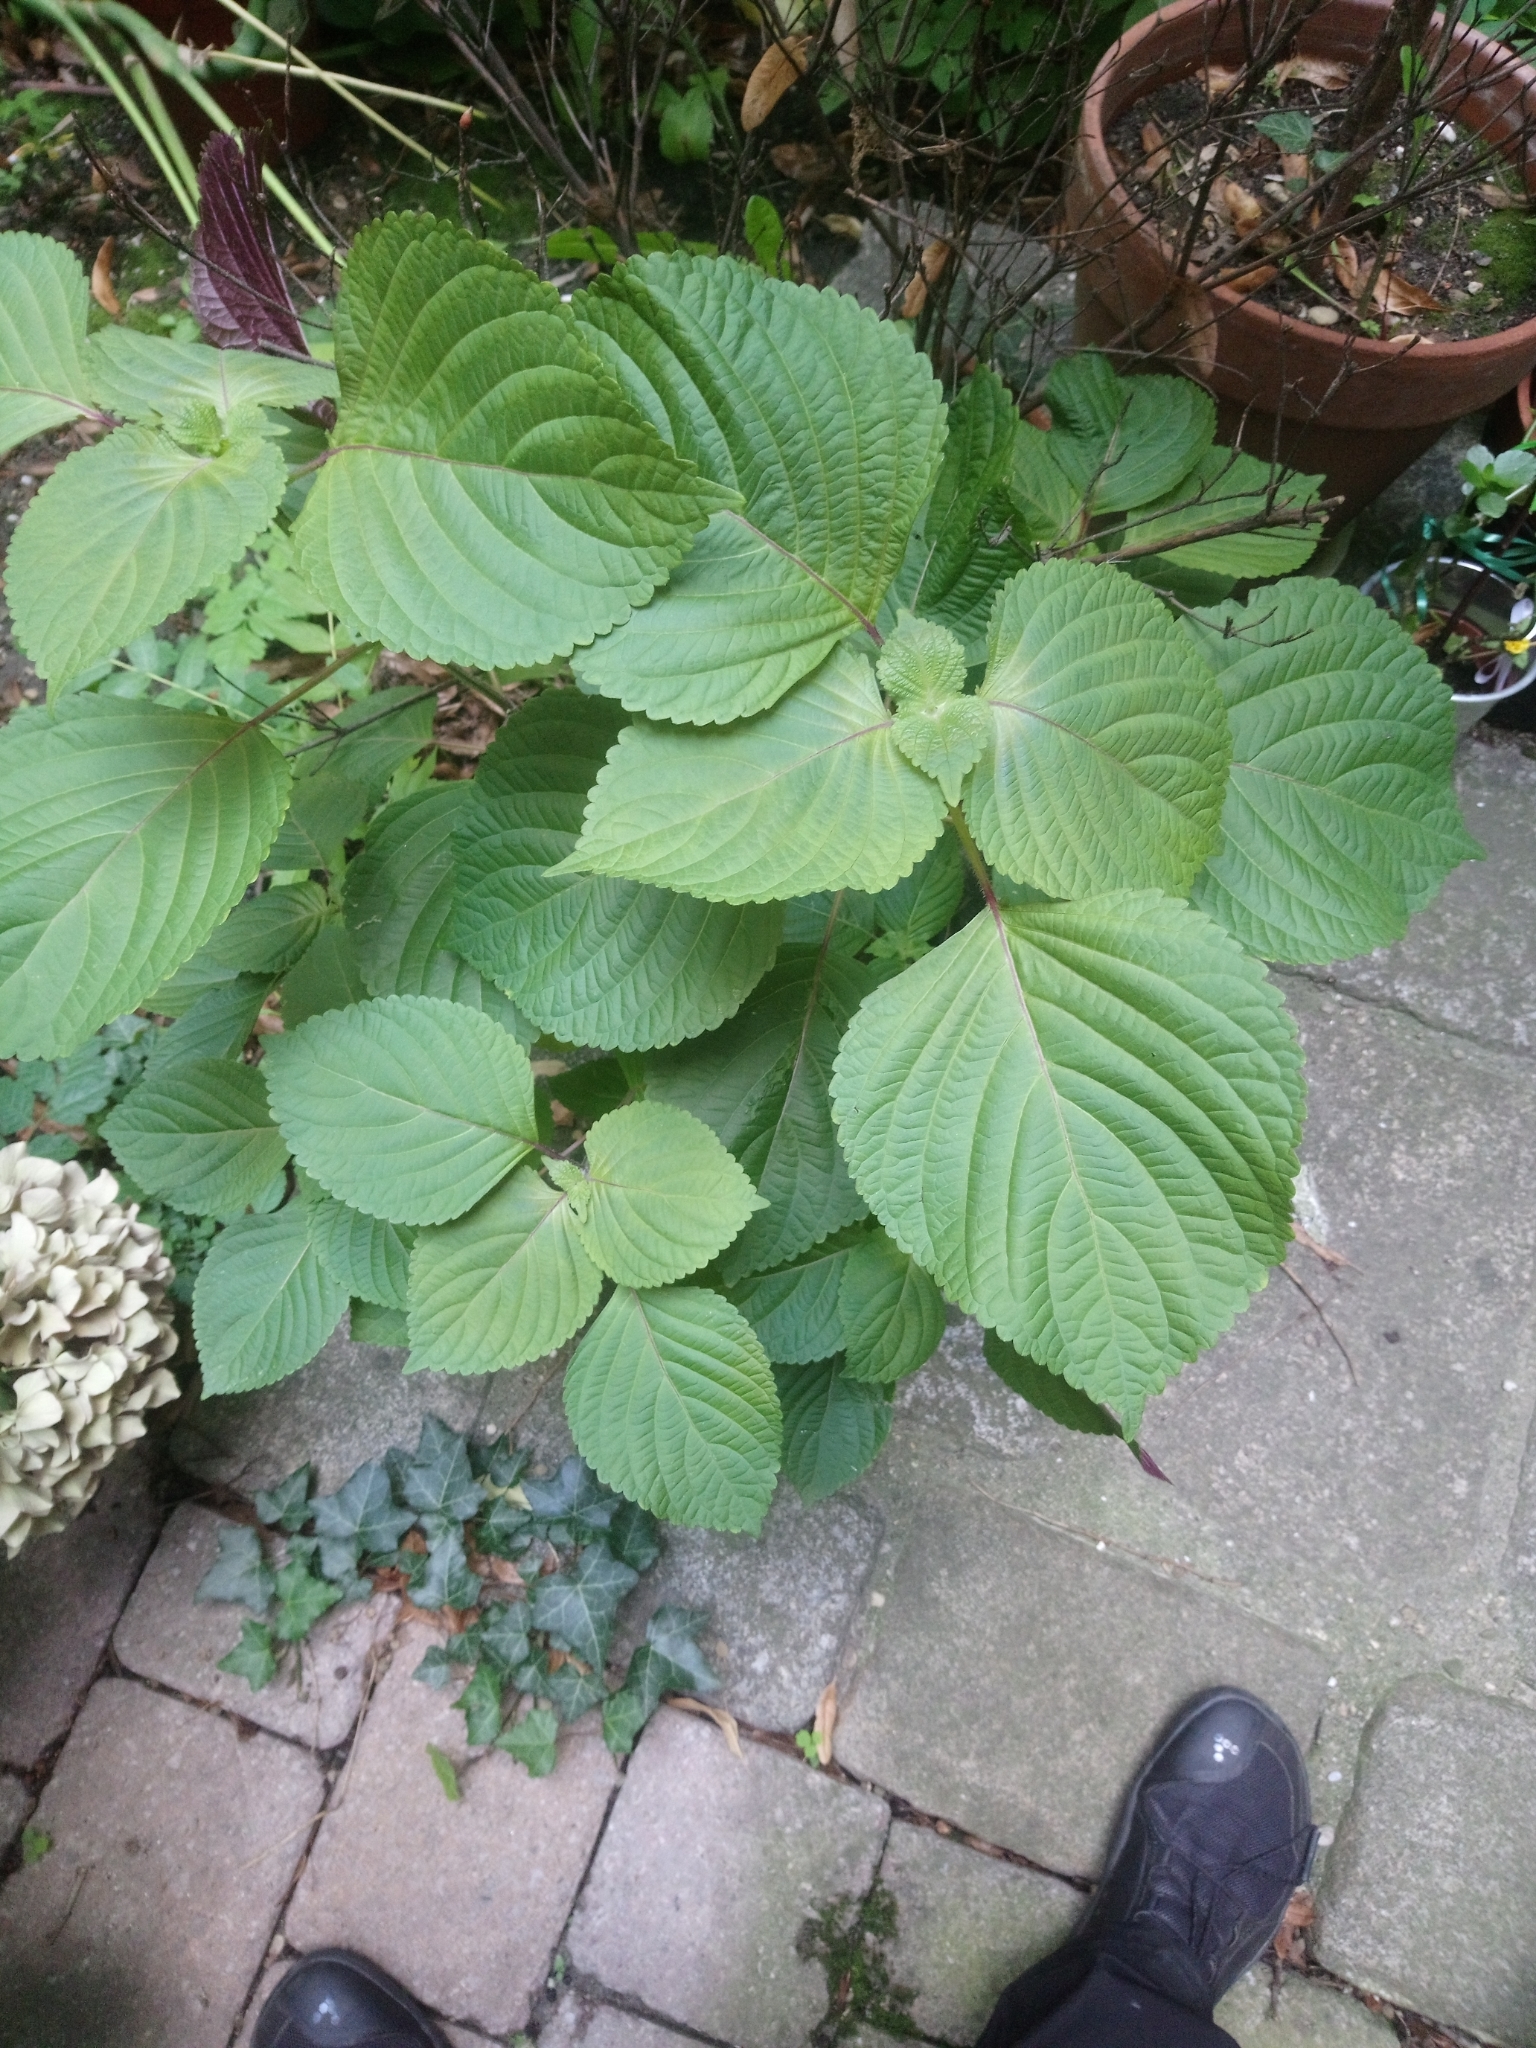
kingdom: Plantae
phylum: Tracheophyta
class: Magnoliopsida
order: Lamiales
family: Lamiaceae
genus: Perilla
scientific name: Perilla frutescens
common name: Perilla
